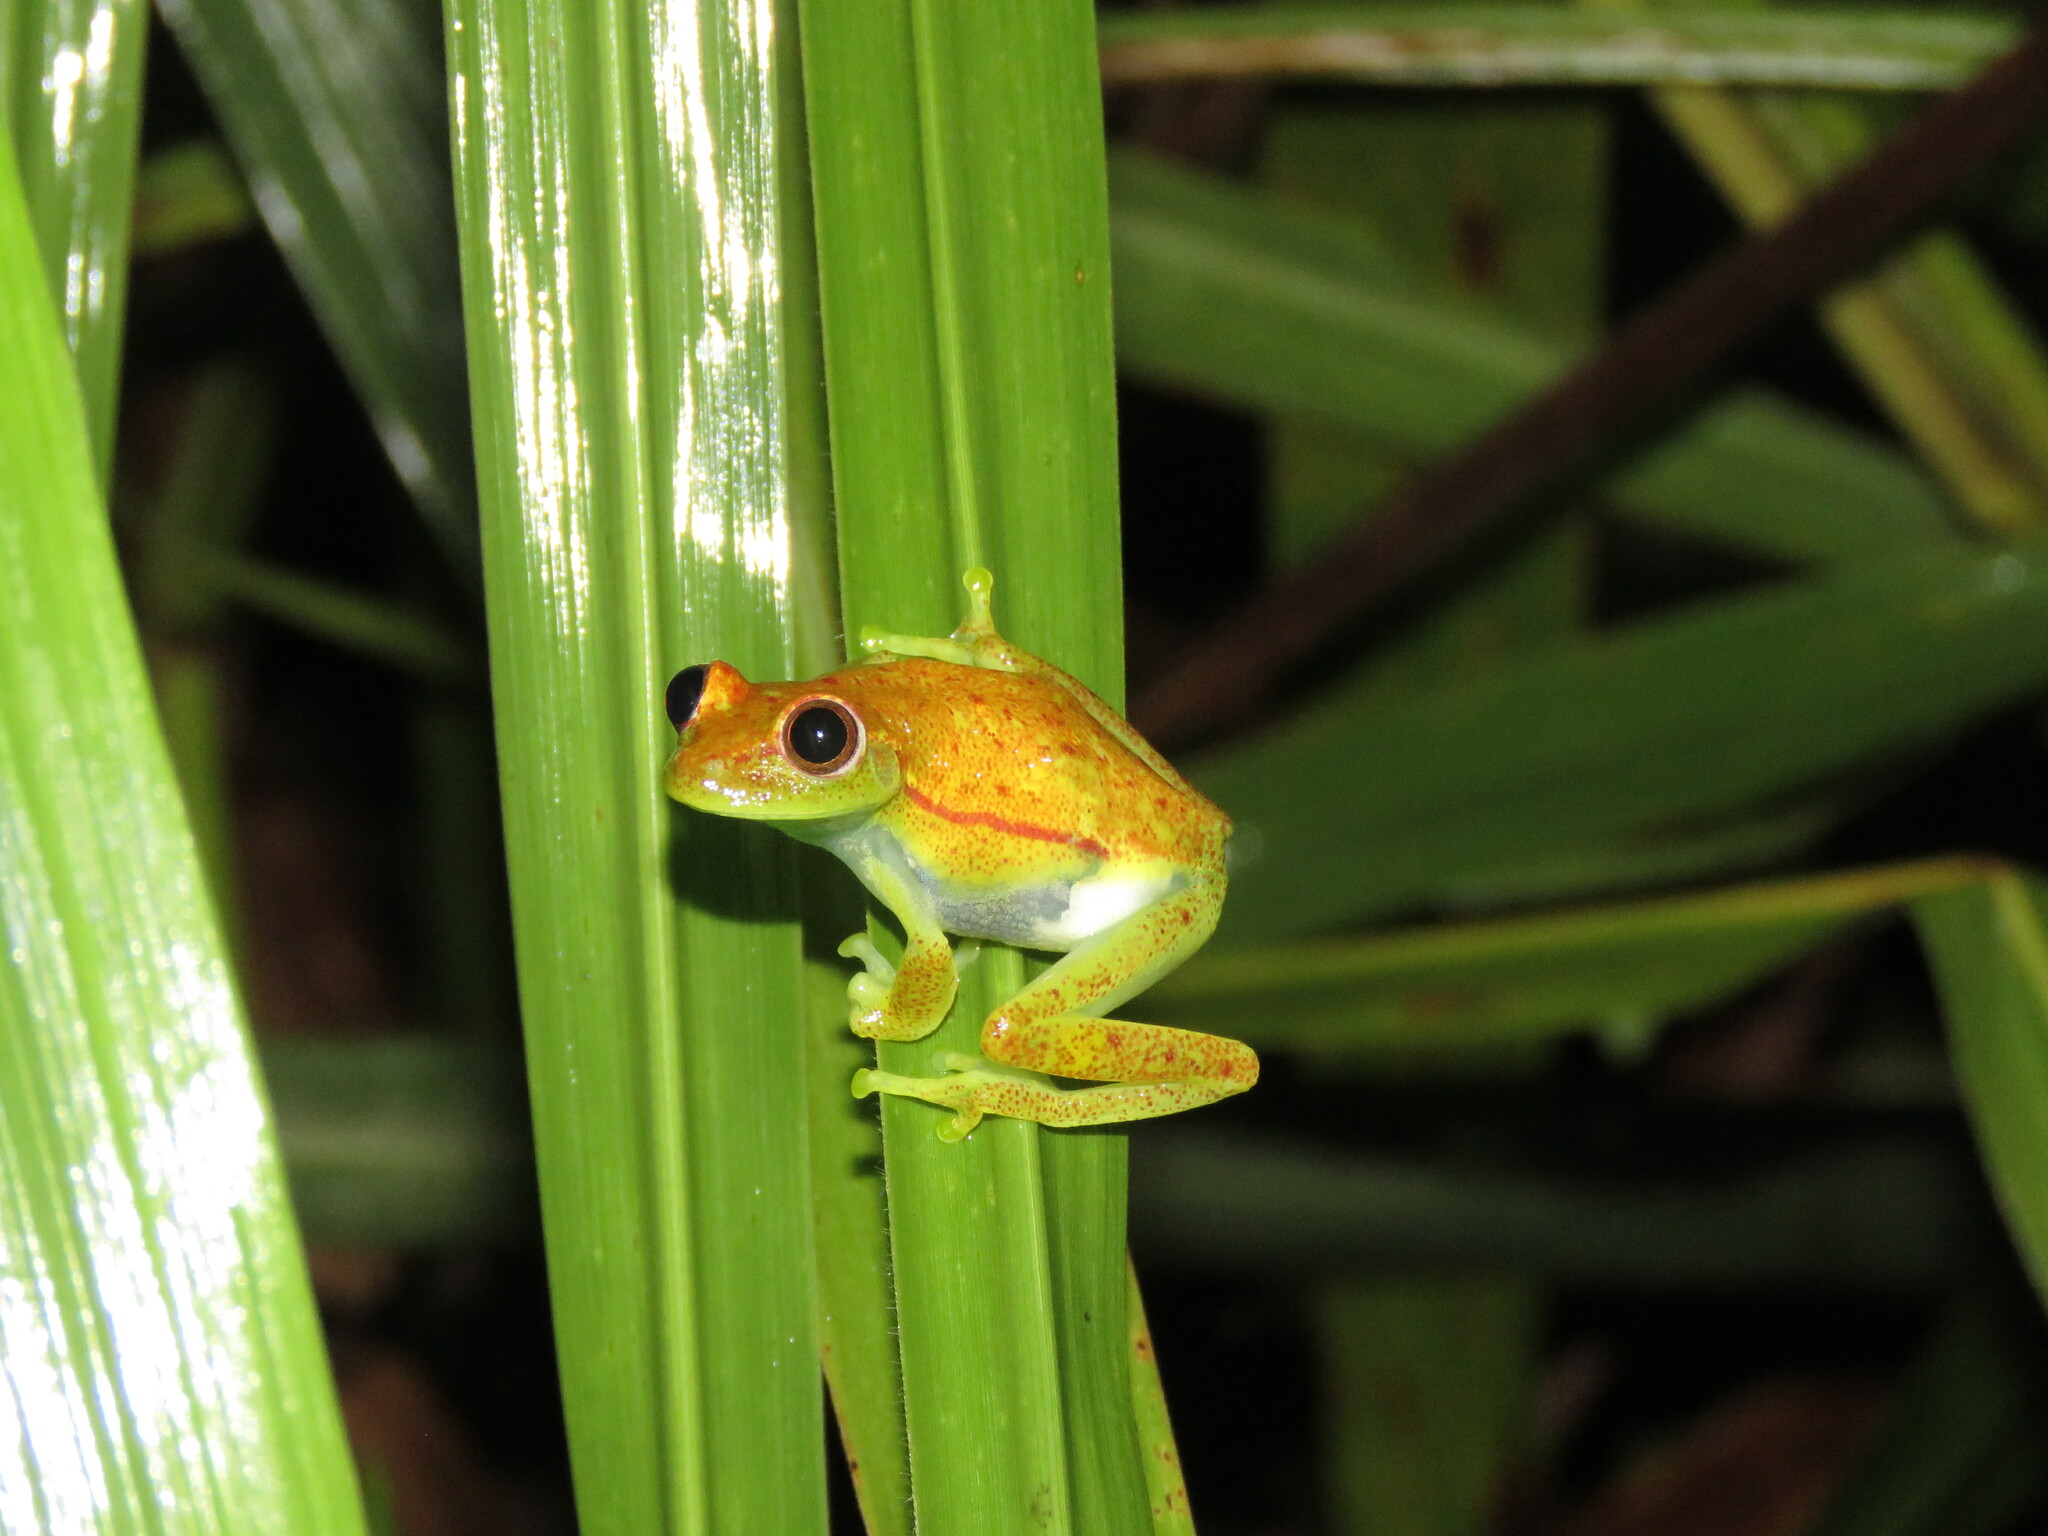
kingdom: Animalia
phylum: Chordata
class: Amphibia
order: Anura
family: Hylidae
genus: Boana
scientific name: Boana punctata
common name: Polka-dot treefrog
